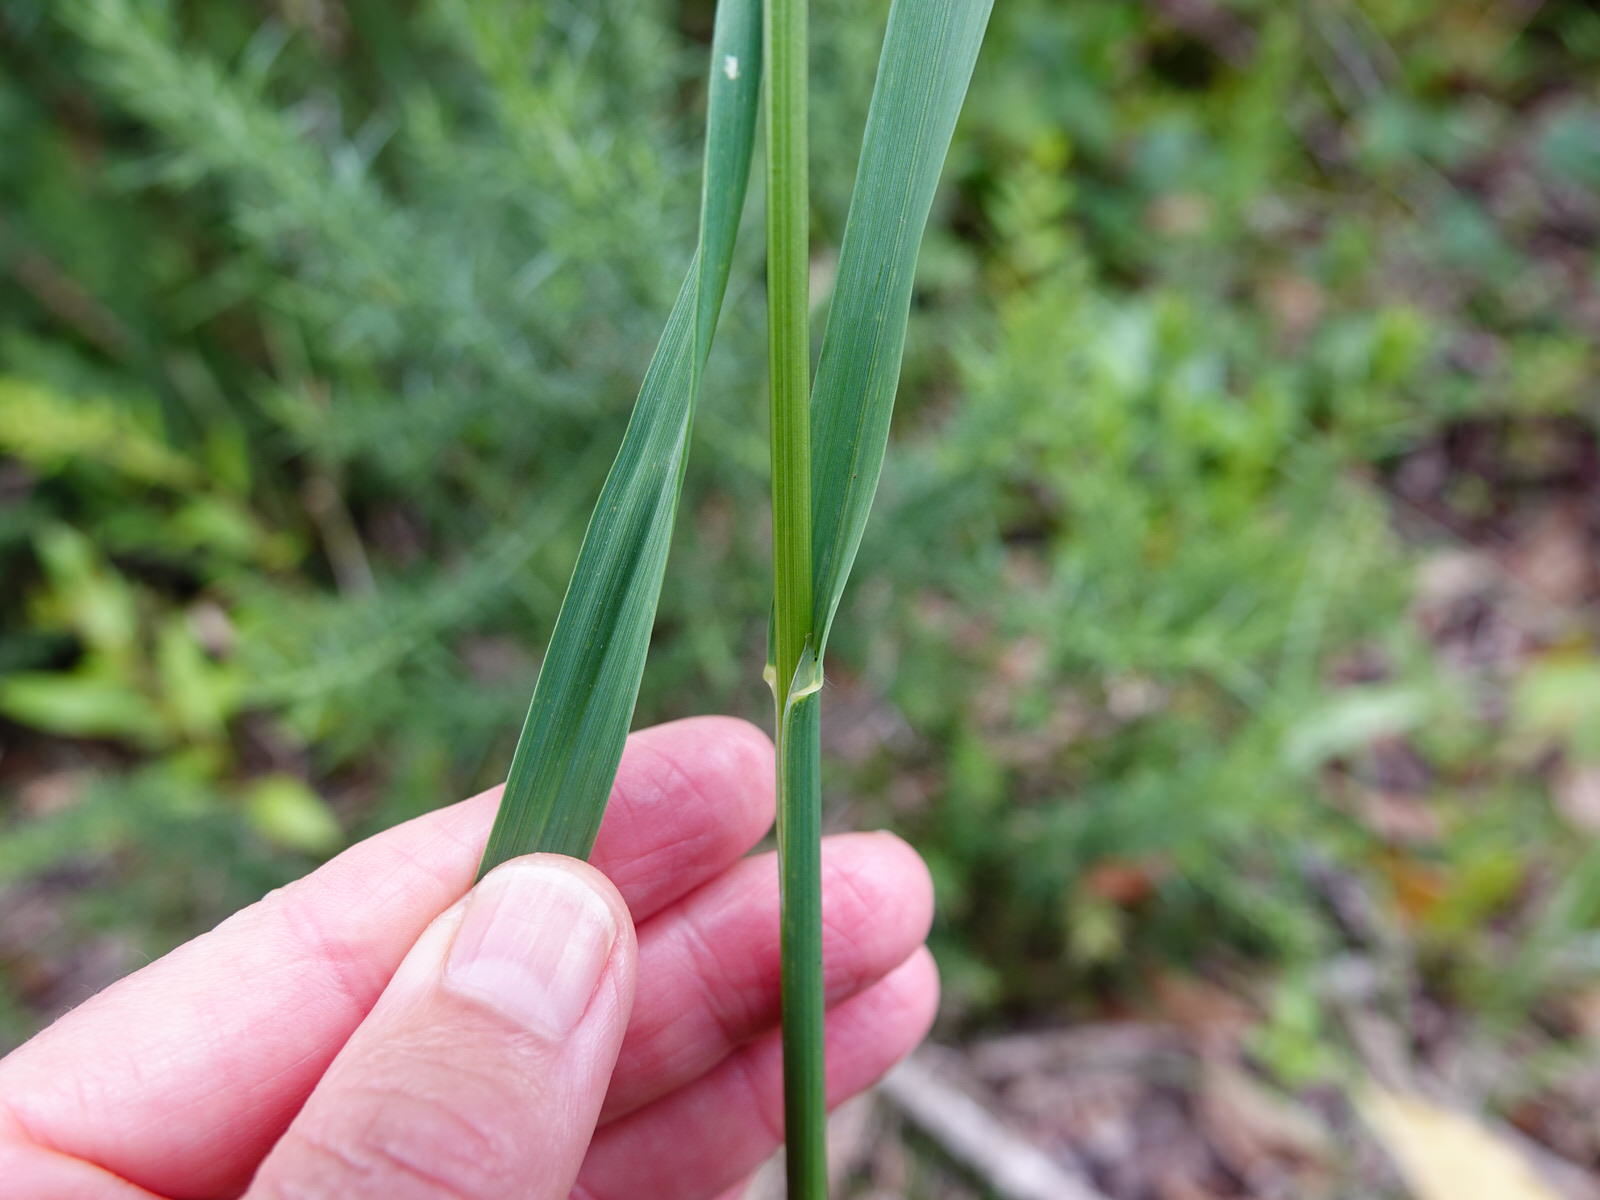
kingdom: Plantae
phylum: Tracheophyta
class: Liliopsida
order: Poales
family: Poaceae
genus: Bromus
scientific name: Bromus catharticus
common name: Rescuegrass
